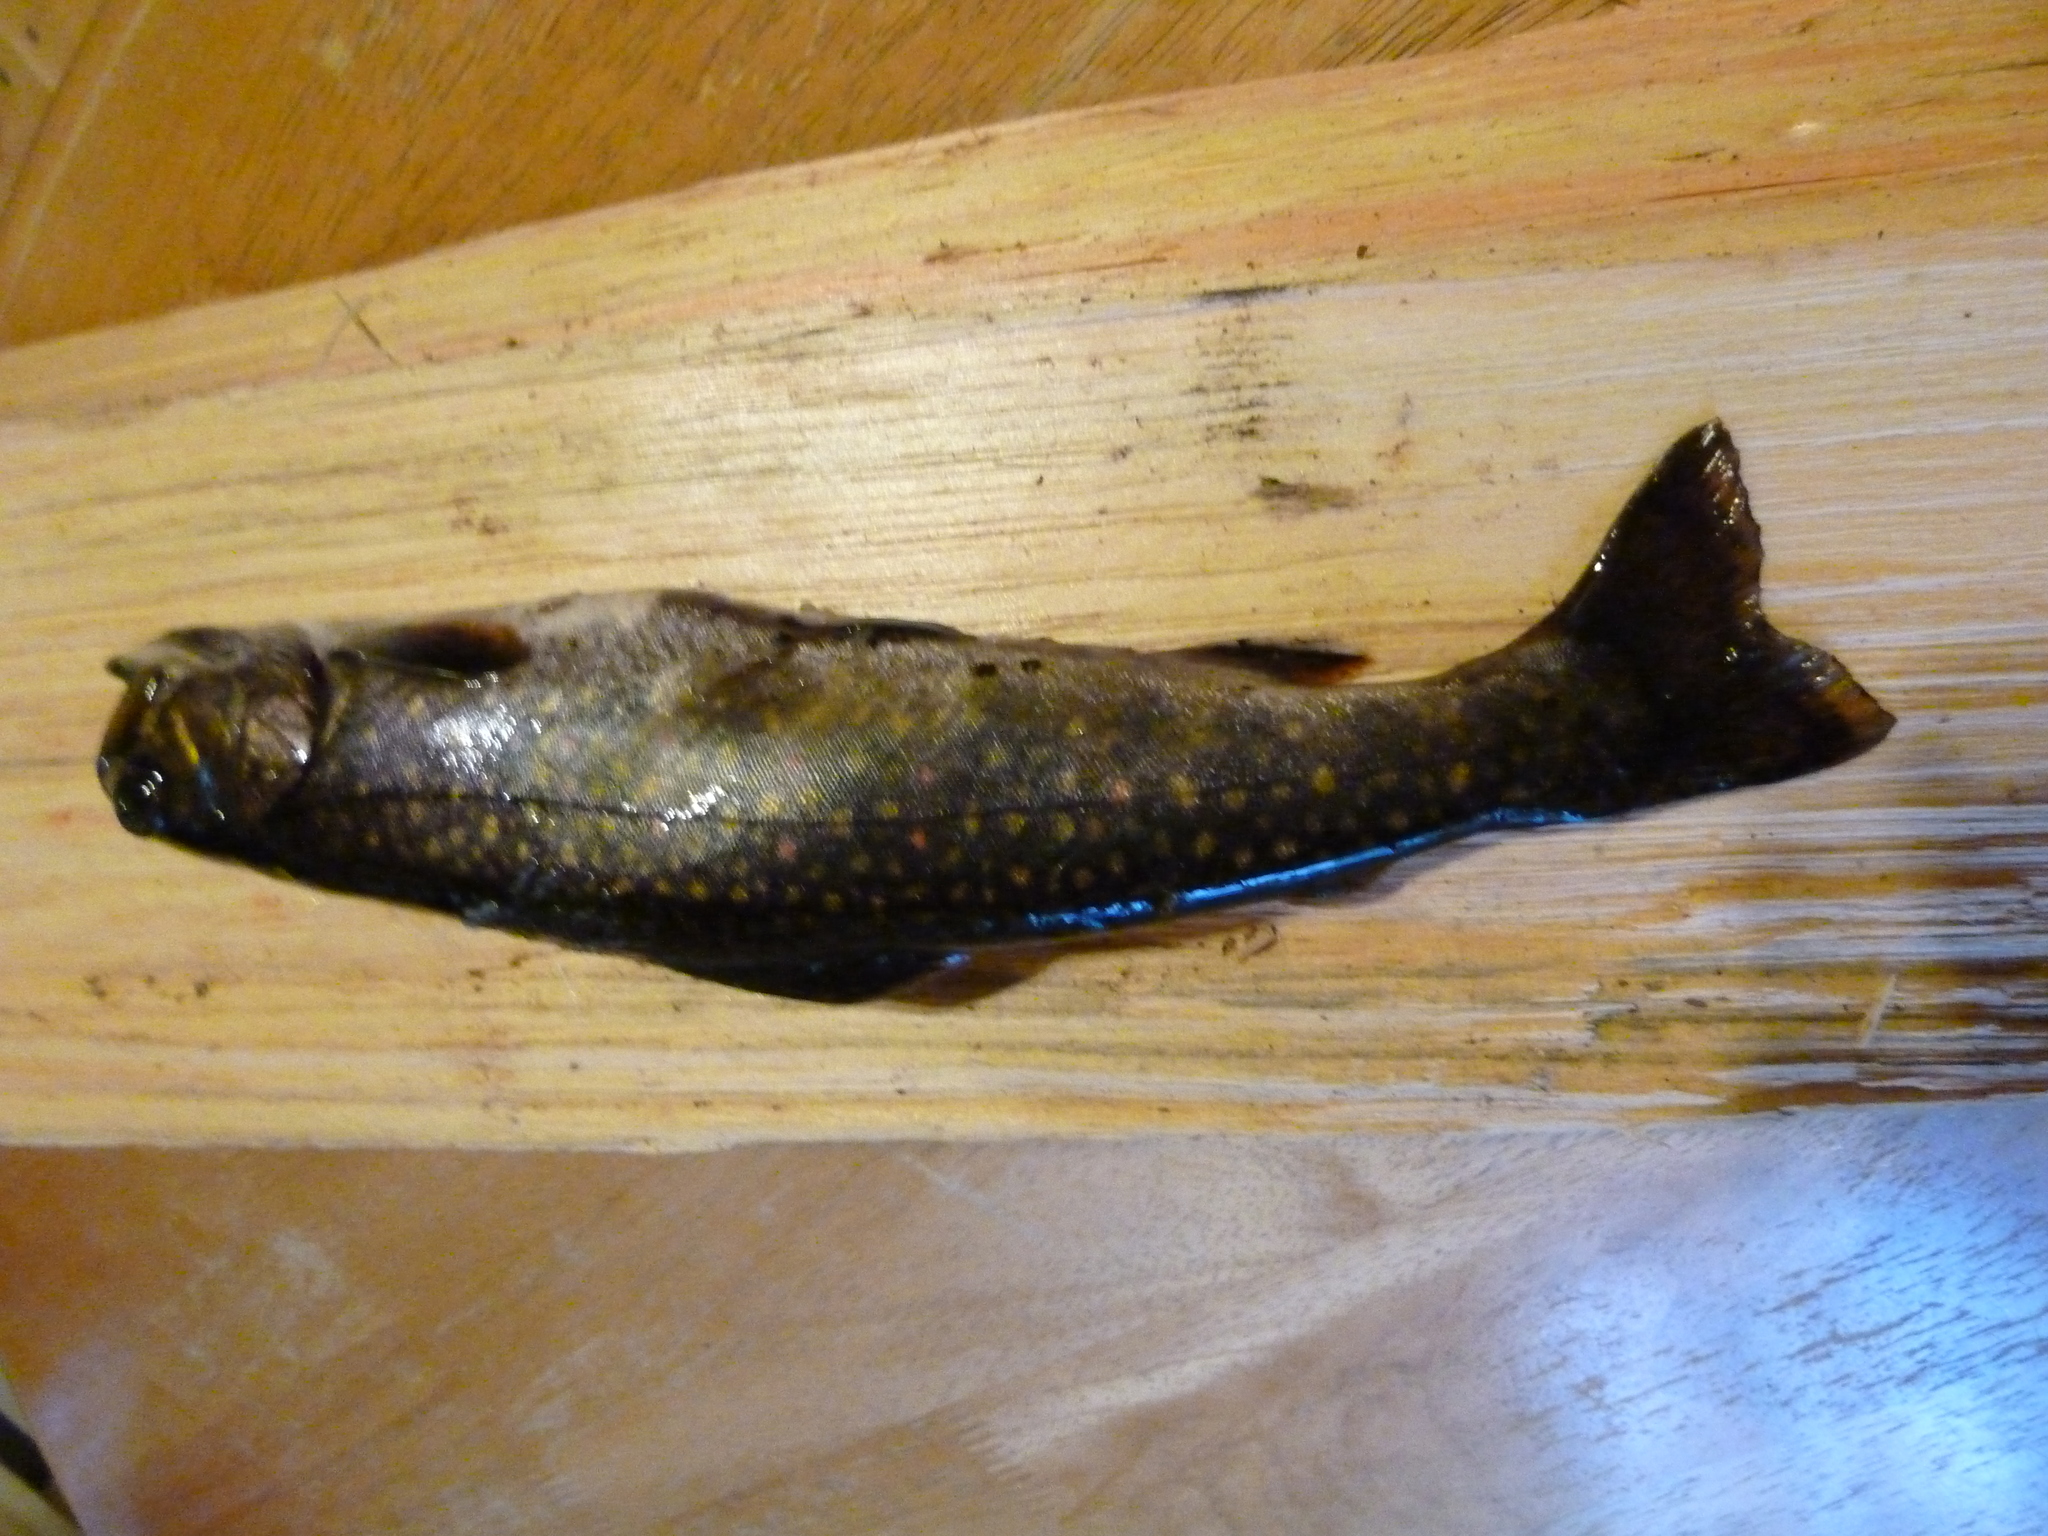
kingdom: Animalia
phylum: Chordata
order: Salmoniformes
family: Salmonidae
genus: Salvelinus
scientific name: Salvelinus fontinalis
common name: Brook trout
